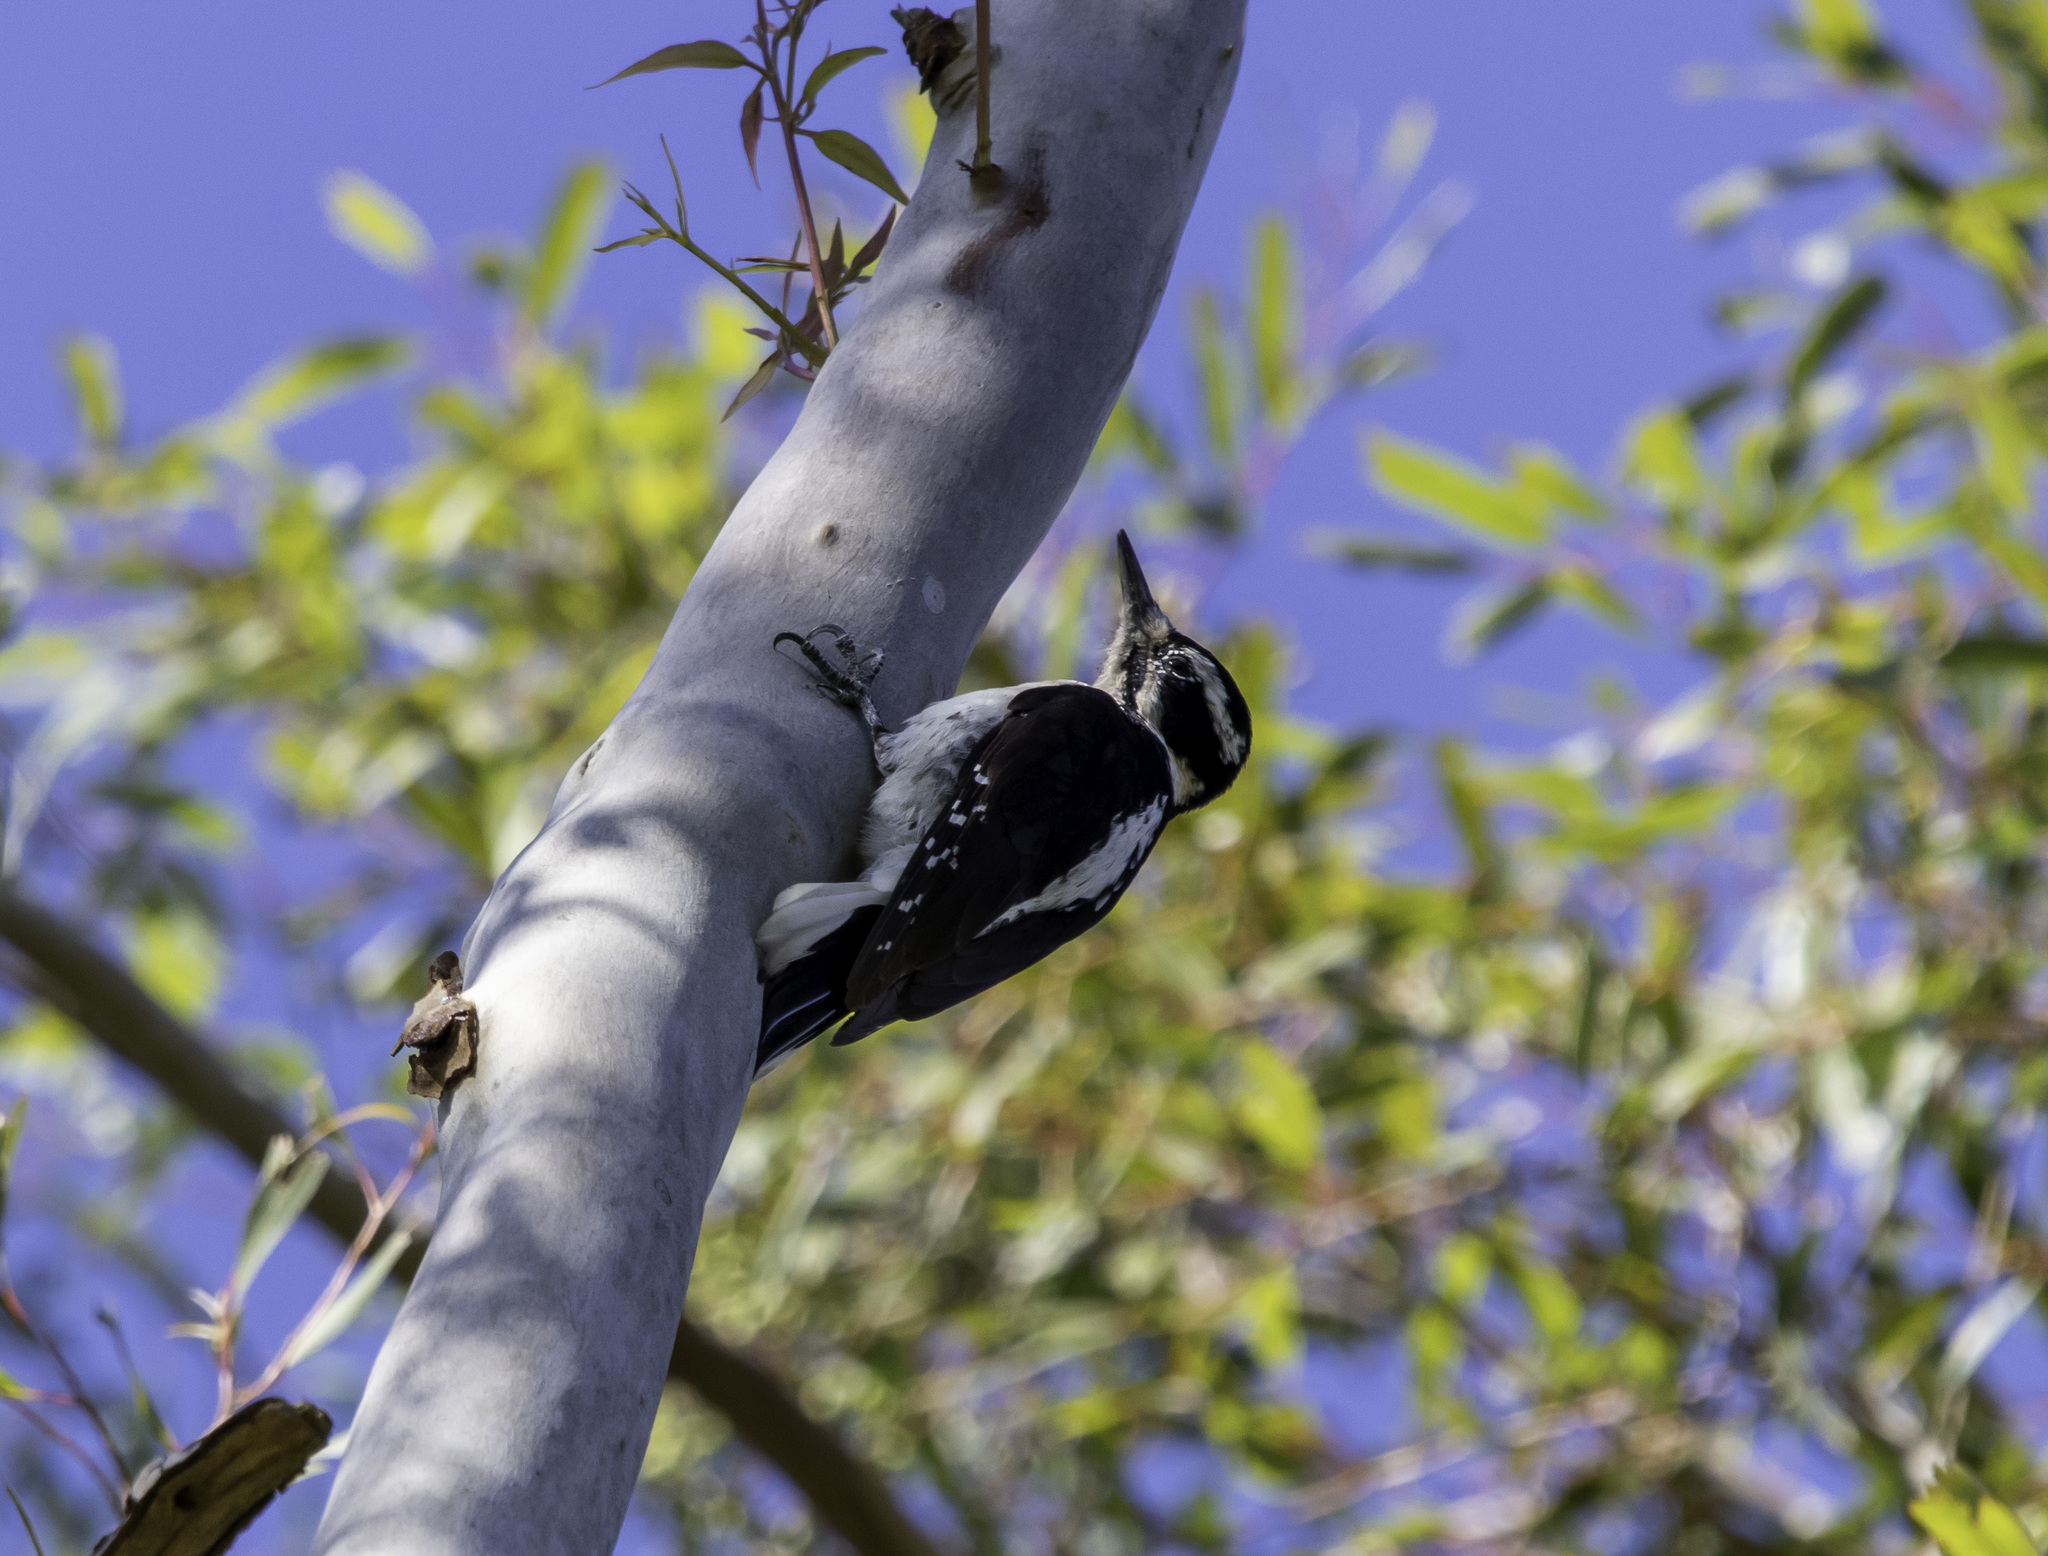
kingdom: Animalia
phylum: Chordata
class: Aves
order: Piciformes
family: Picidae
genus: Leuconotopicus
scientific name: Leuconotopicus villosus
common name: Hairy woodpecker
